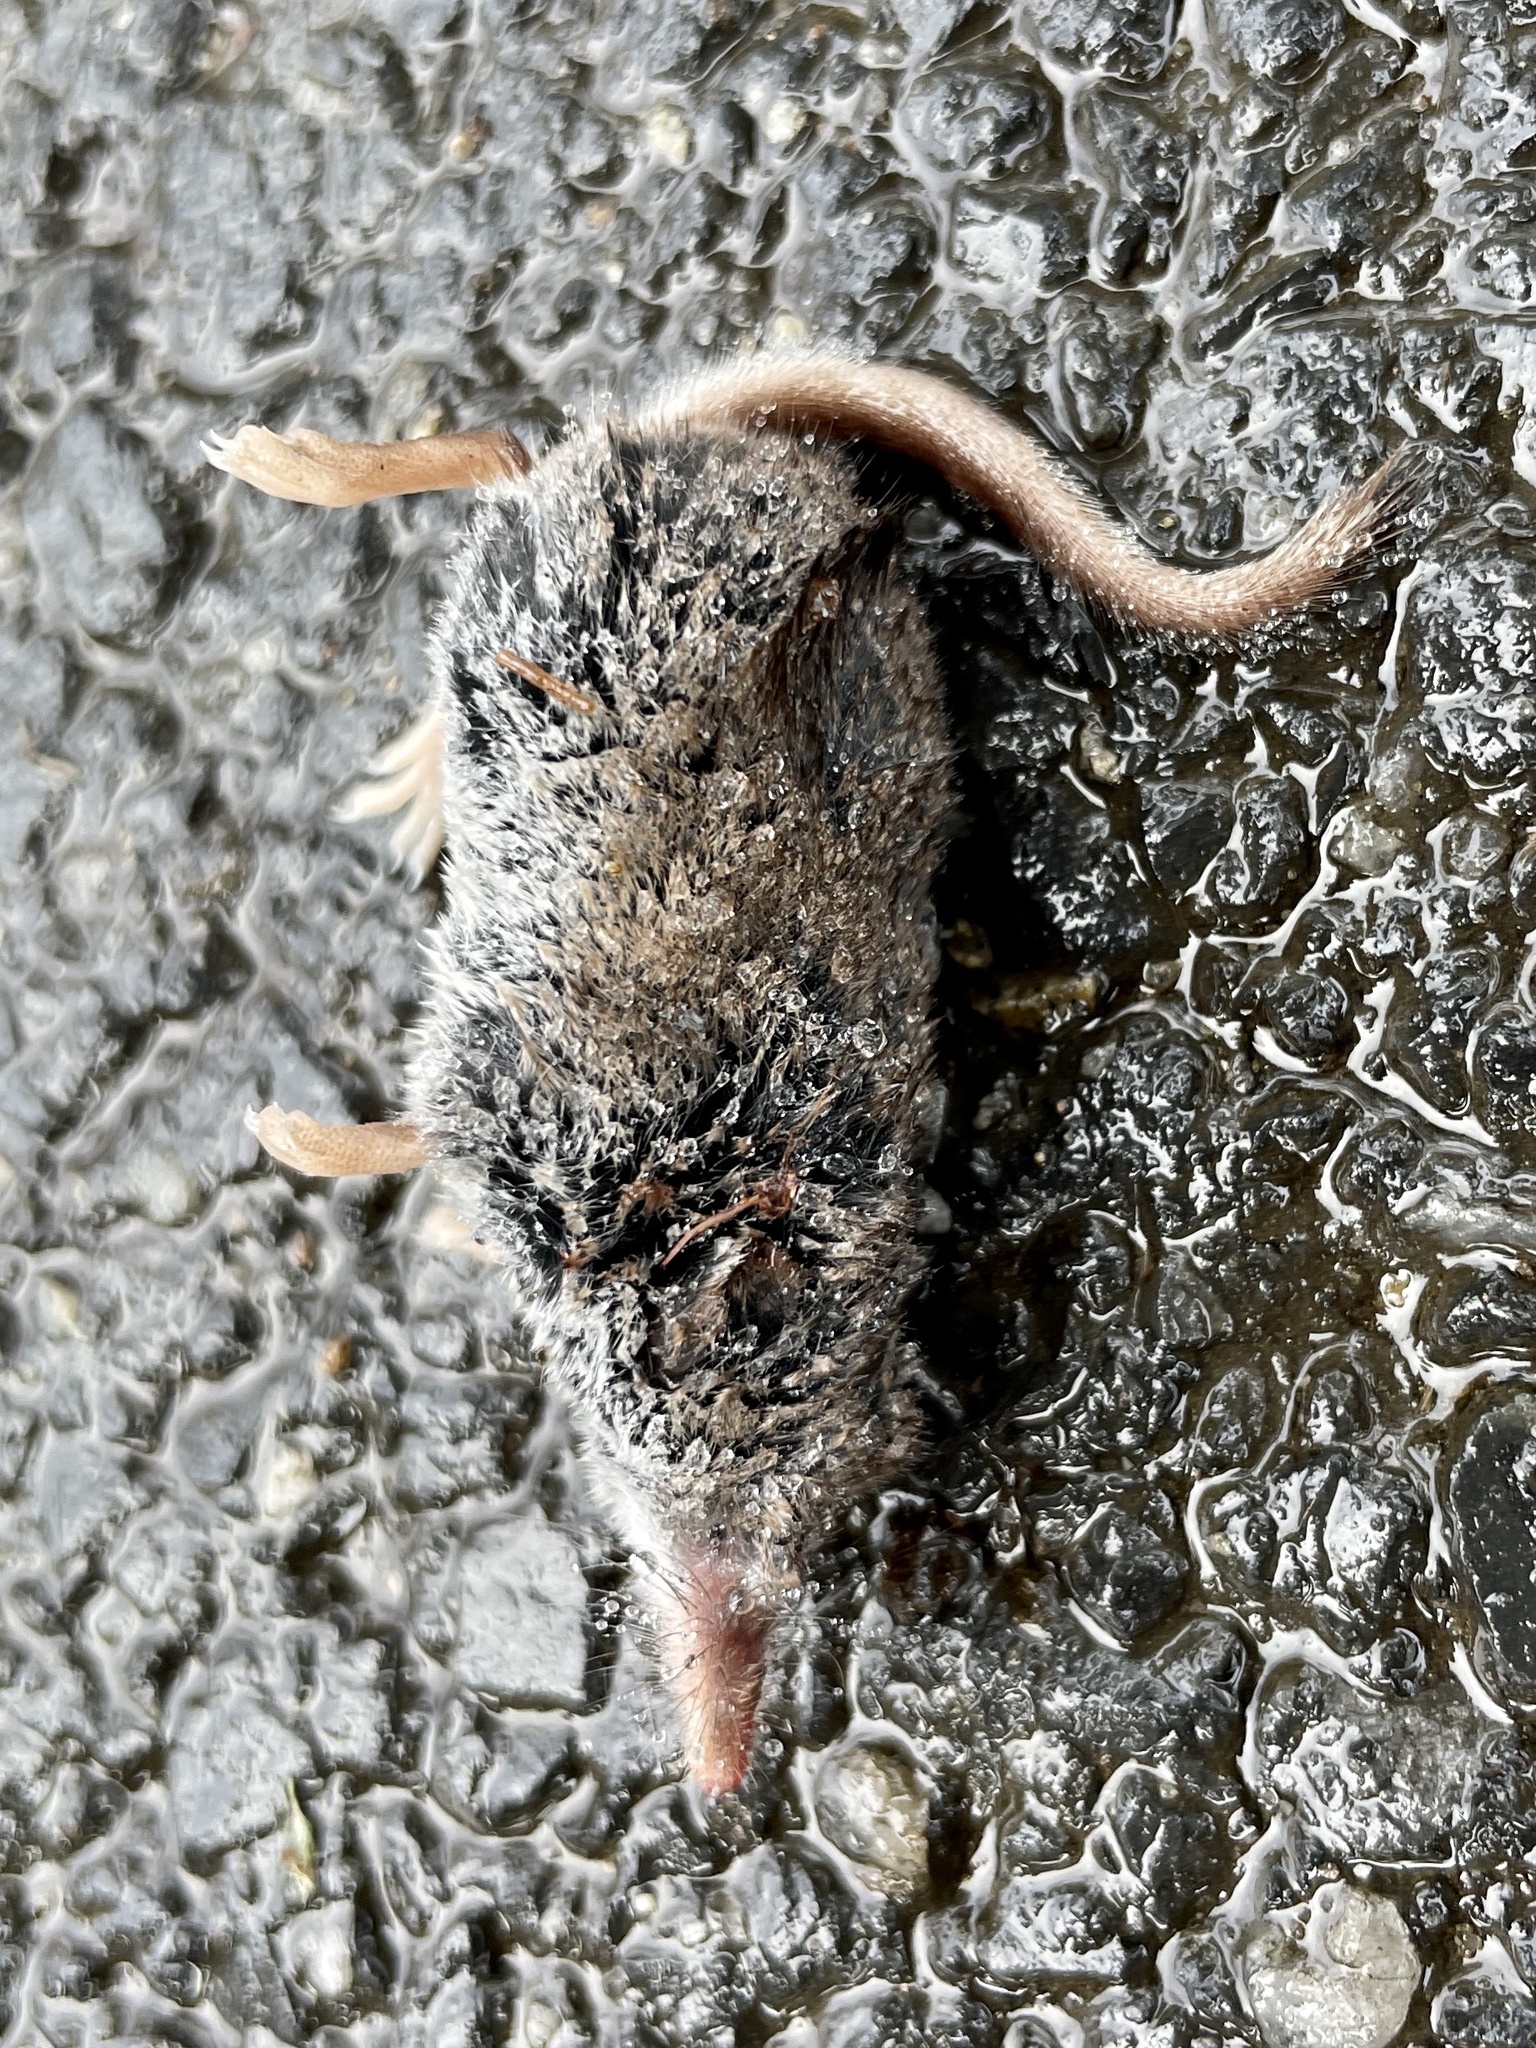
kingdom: Animalia
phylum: Chordata
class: Mammalia
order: Soricomorpha
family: Soricidae
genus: Sorex
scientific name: Sorex minutus
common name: Eurasian pygmy shrew
